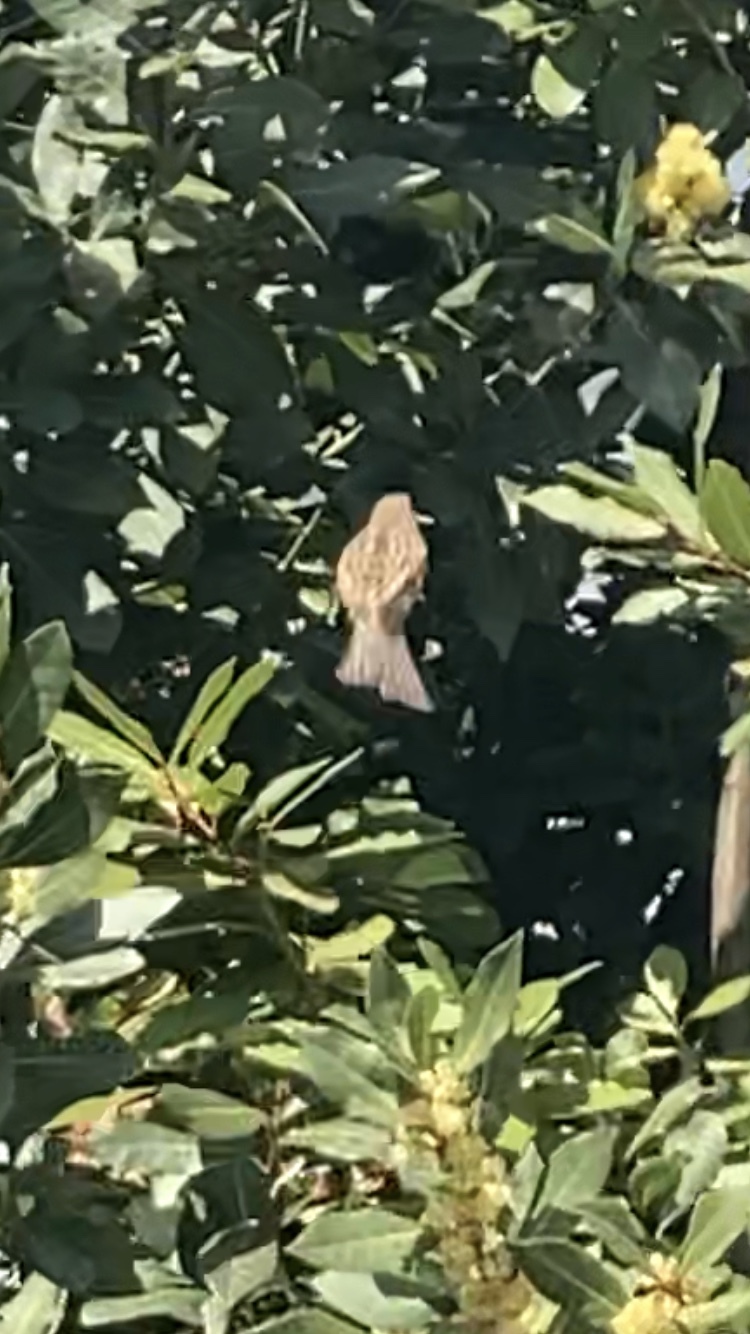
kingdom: Animalia
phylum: Chordata
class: Aves
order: Passeriformes
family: Passeridae
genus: Passer
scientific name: Passer domesticus
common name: House sparrow
